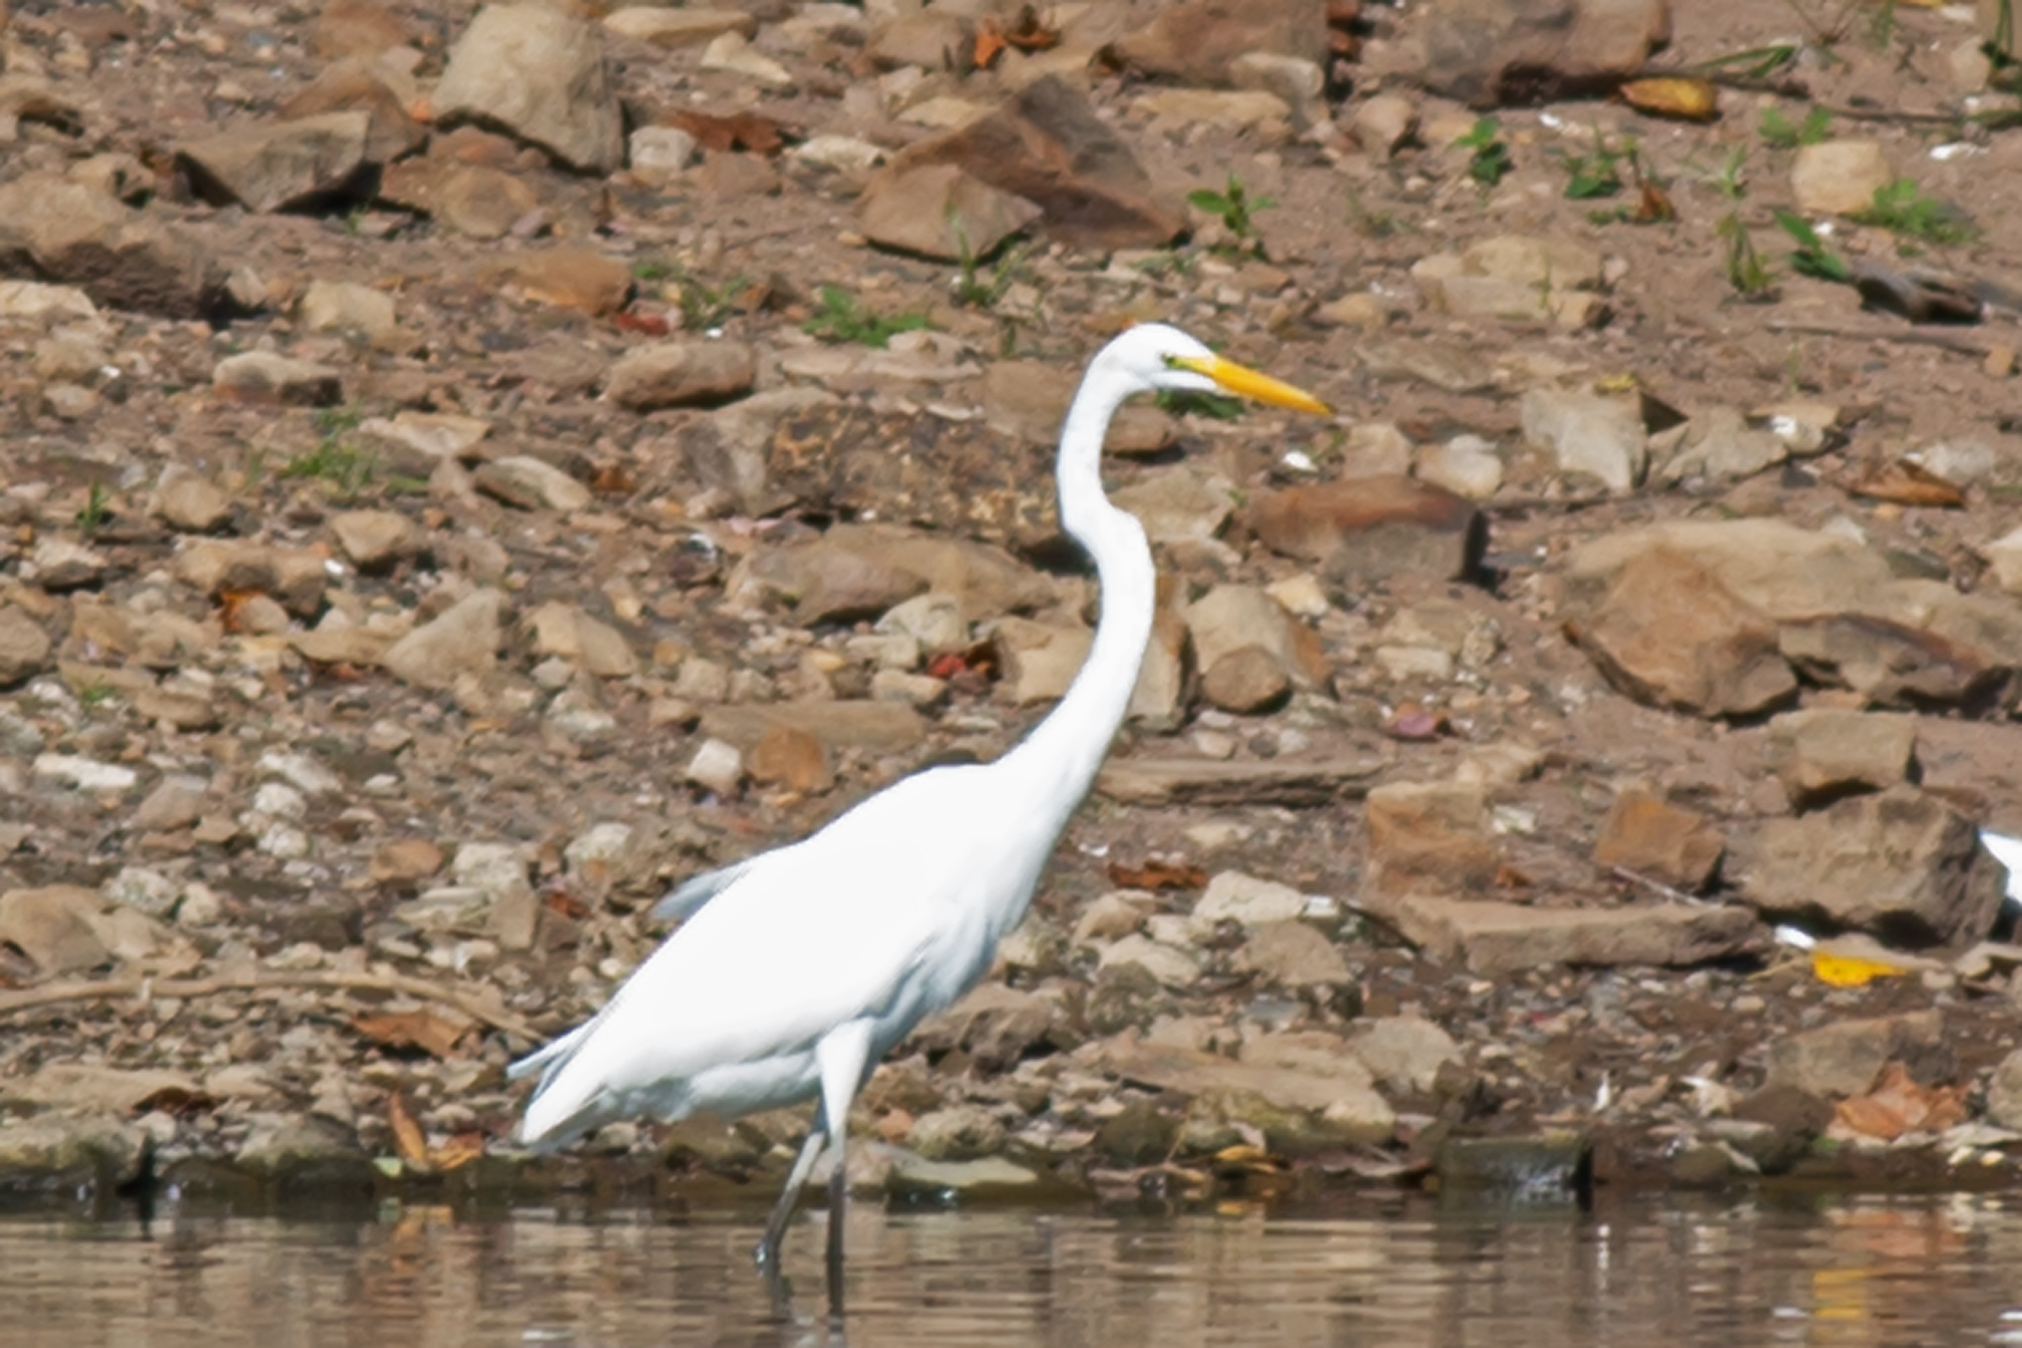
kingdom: Animalia
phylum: Chordata
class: Aves
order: Pelecaniformes
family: Ardeidae
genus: Ardea
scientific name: Ardea alba
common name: Great egret
